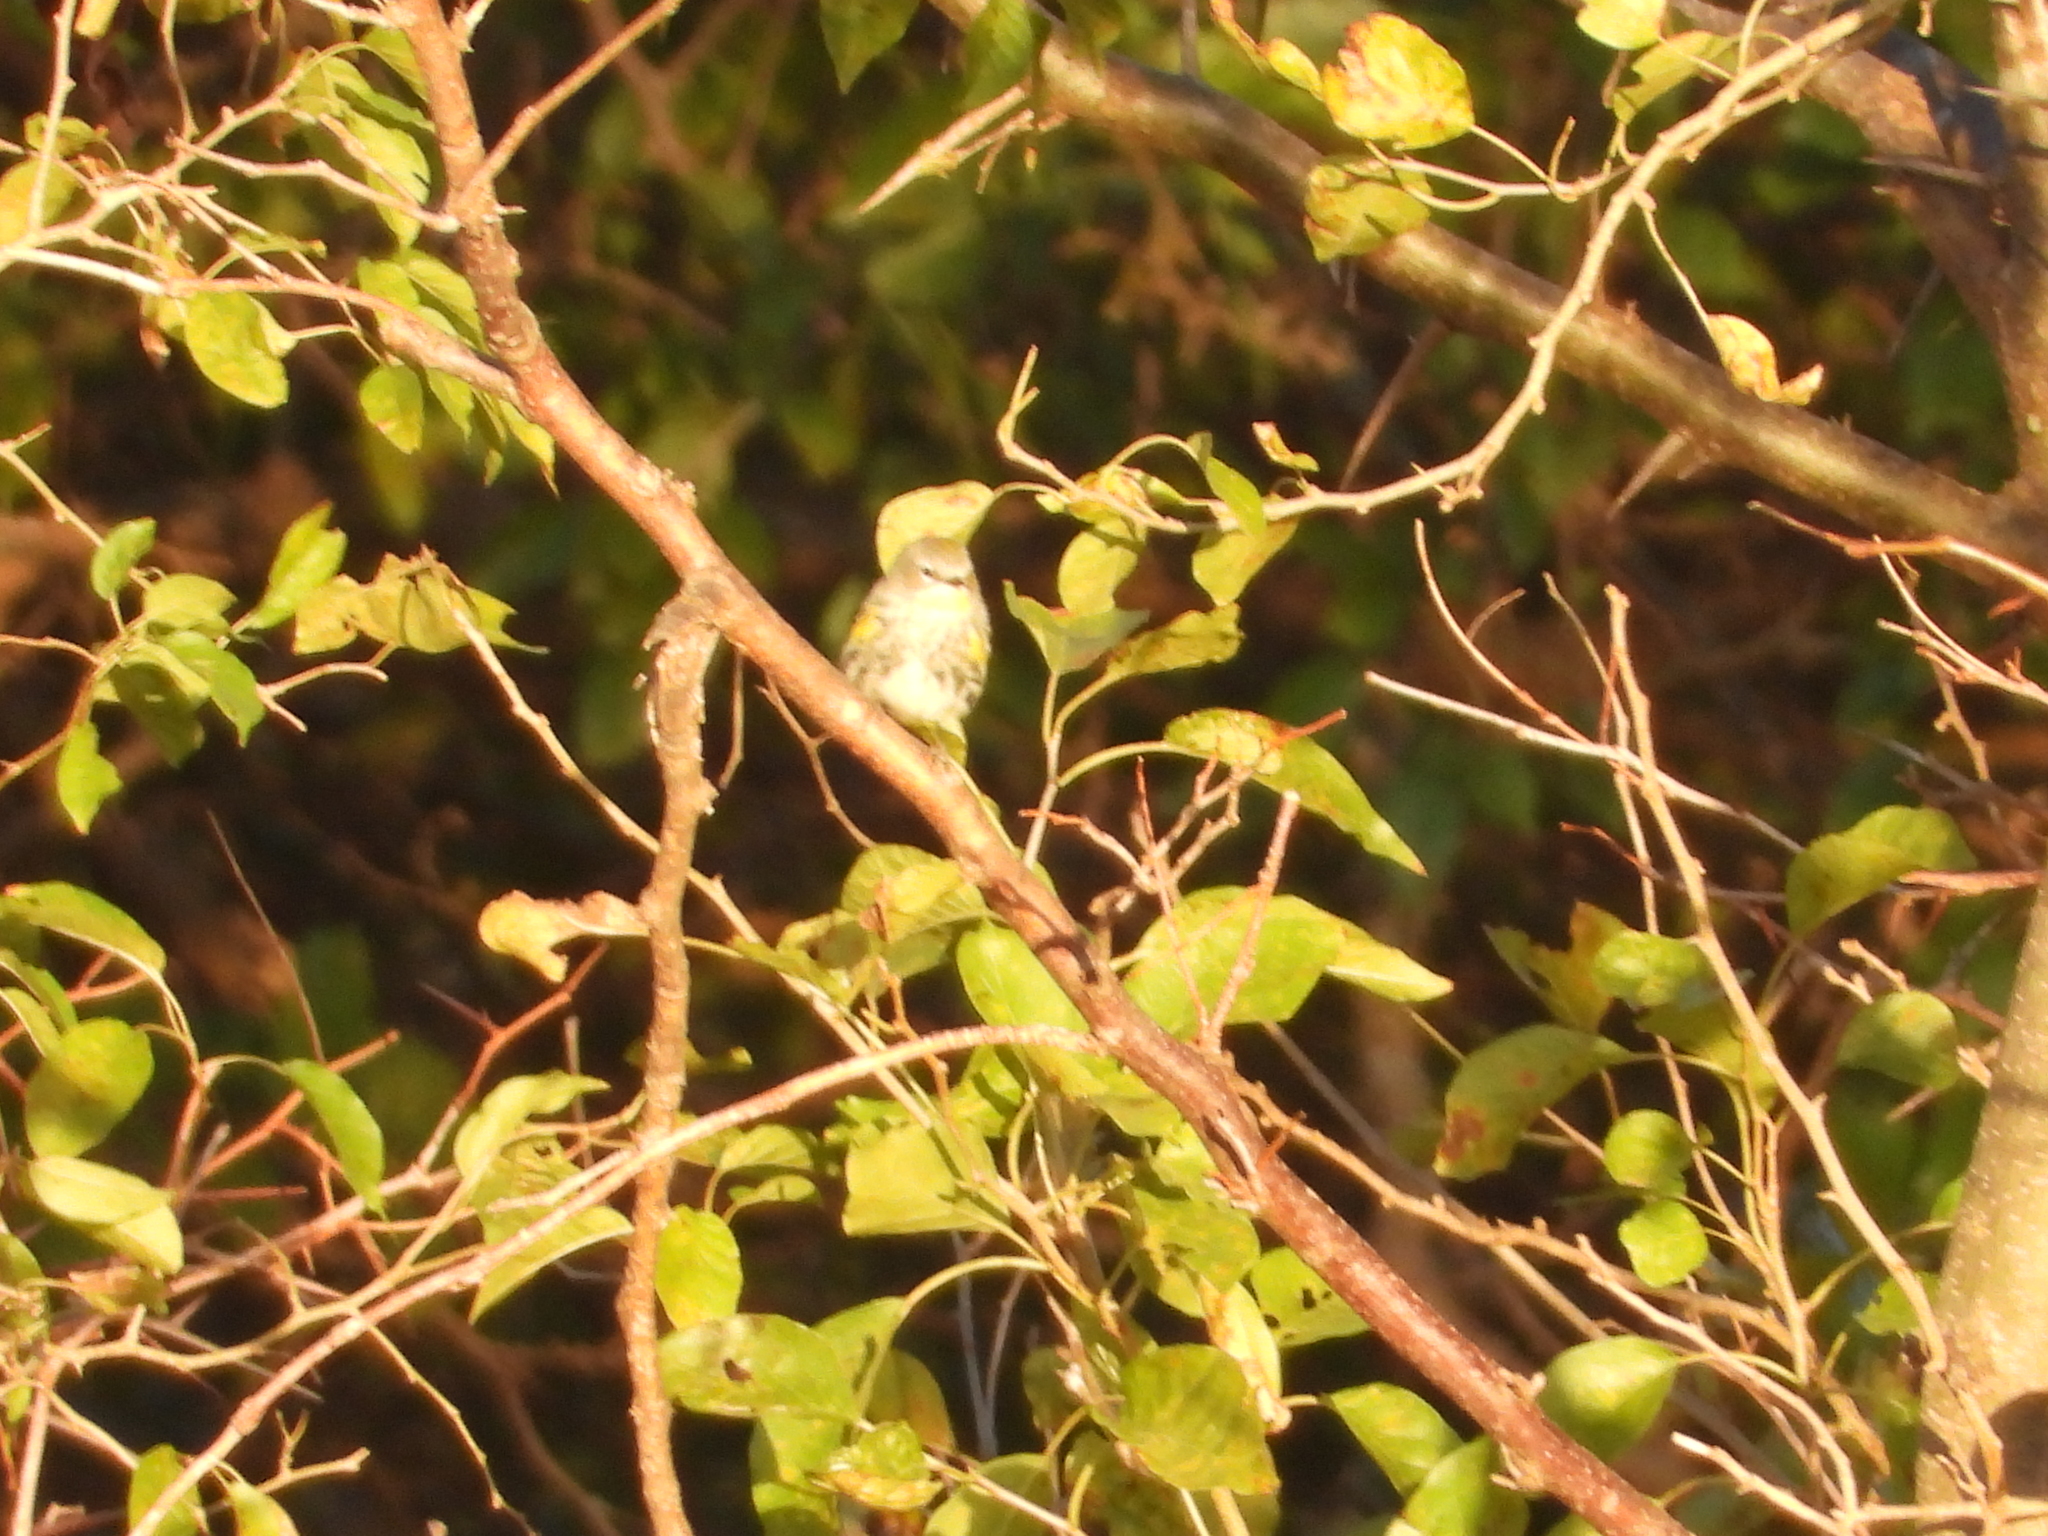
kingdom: Animalia
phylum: Chordata
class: Aves
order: Passeriformes
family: Parulidae
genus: Setophaga
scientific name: Setophaga coronata
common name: Myrtle warbler
